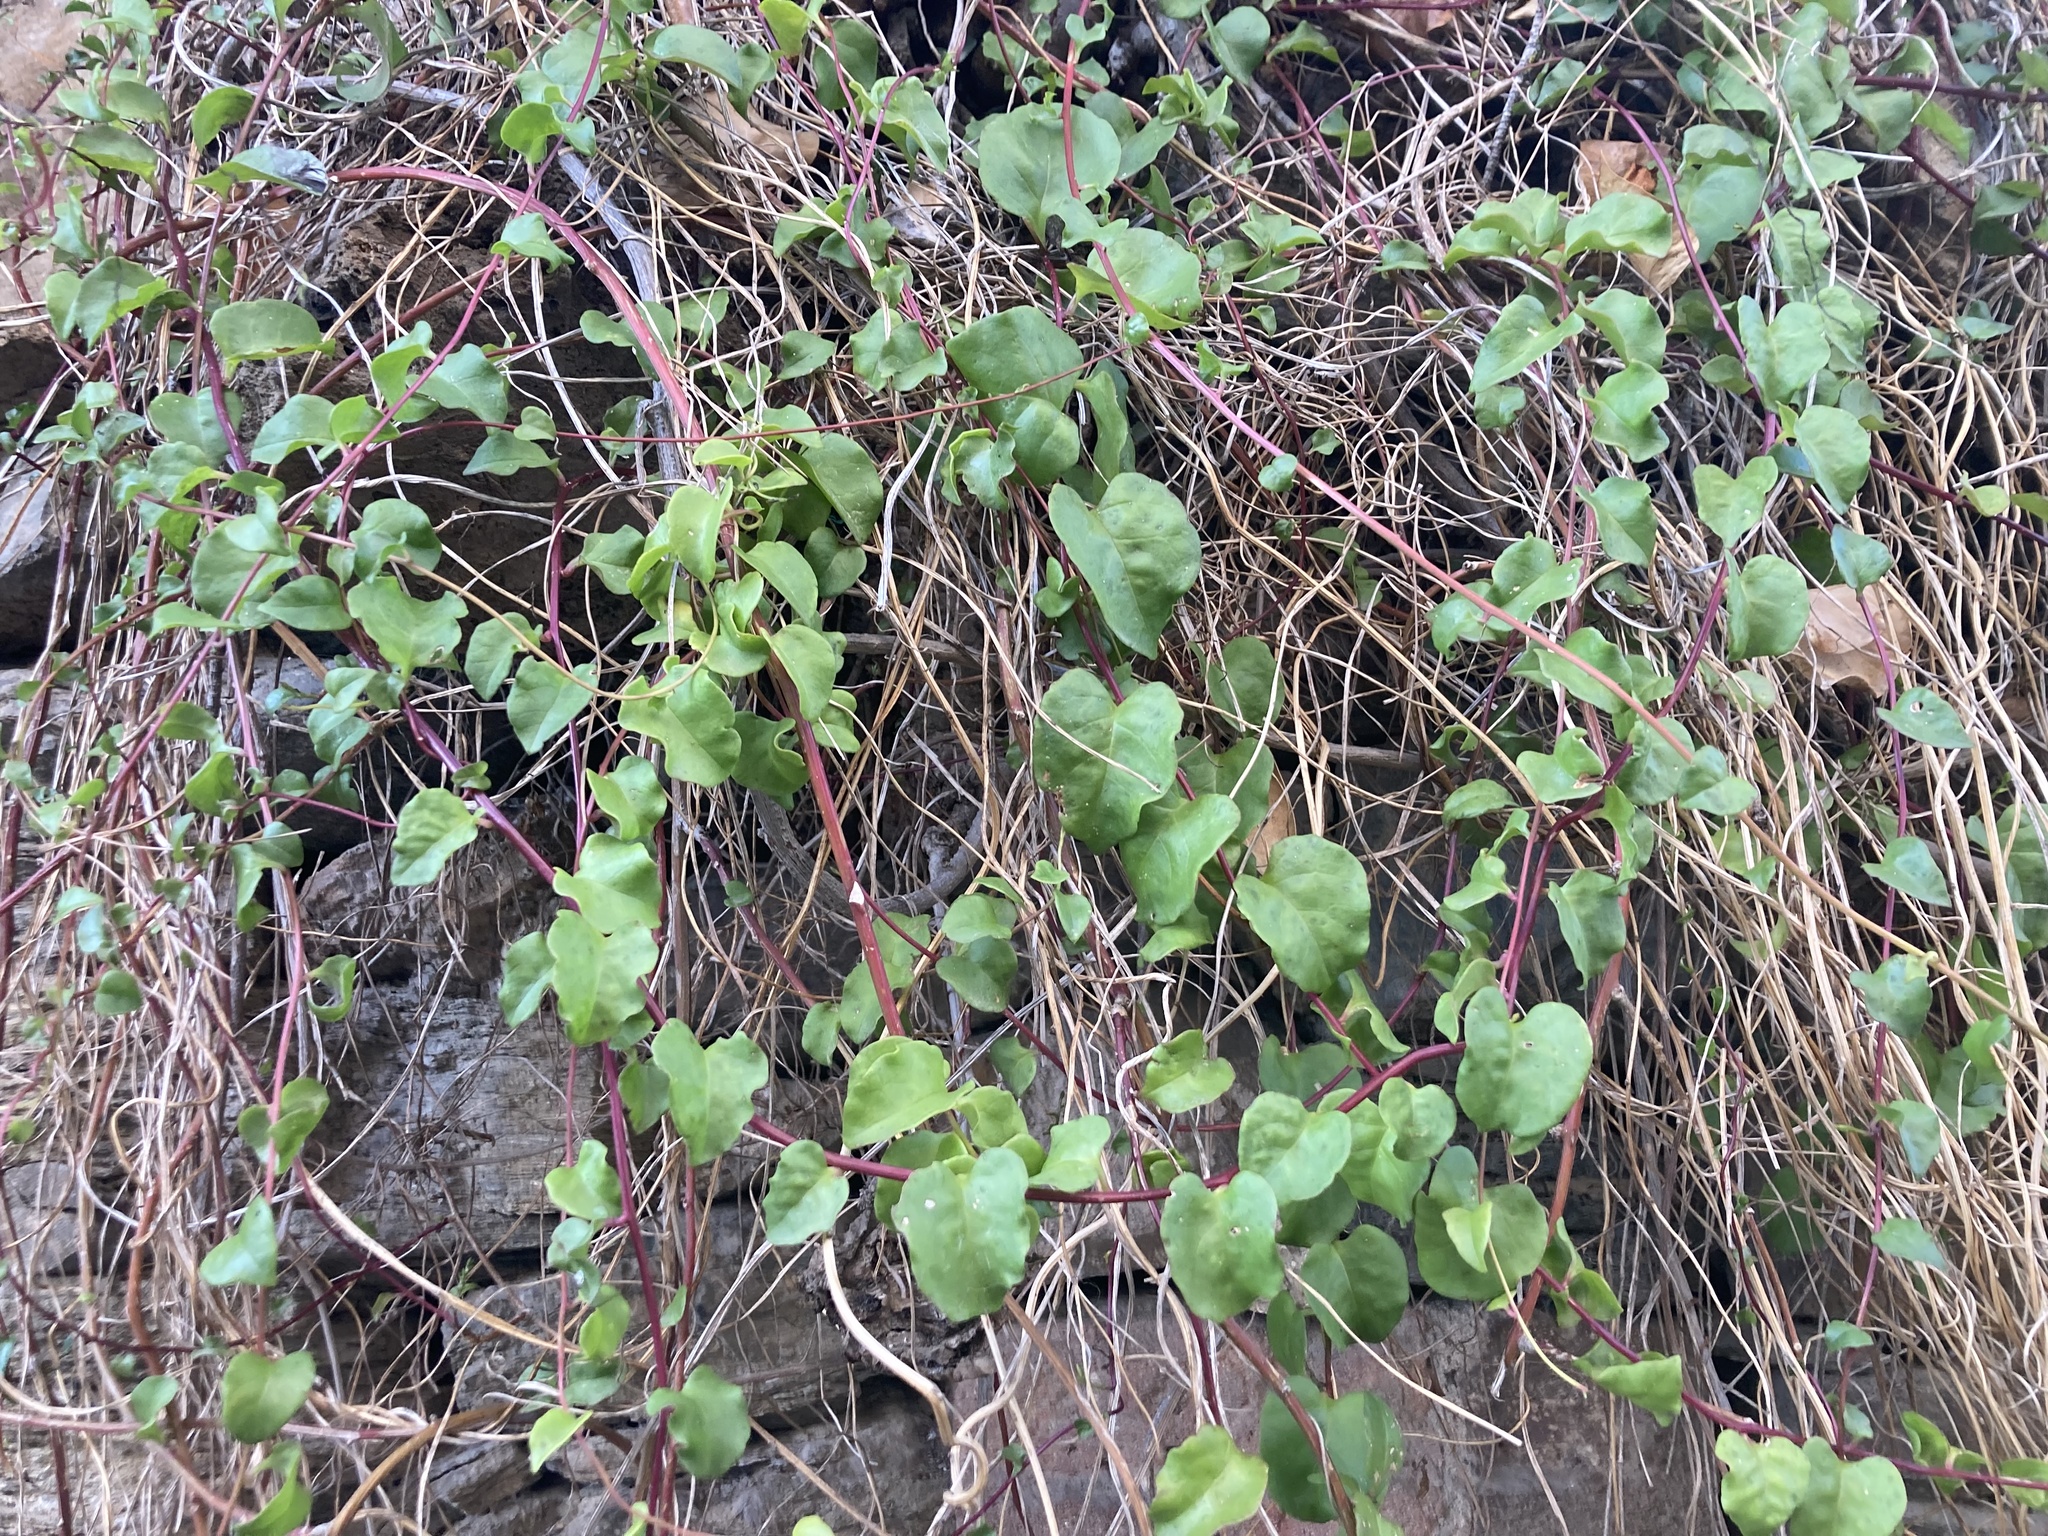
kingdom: Plantae
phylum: Tracheophyta
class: Magnoliopsida
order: Caryophyllales
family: Basellaceae
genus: Anredera
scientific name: Anredera cordifolia
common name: Heartleaf madeiravine
